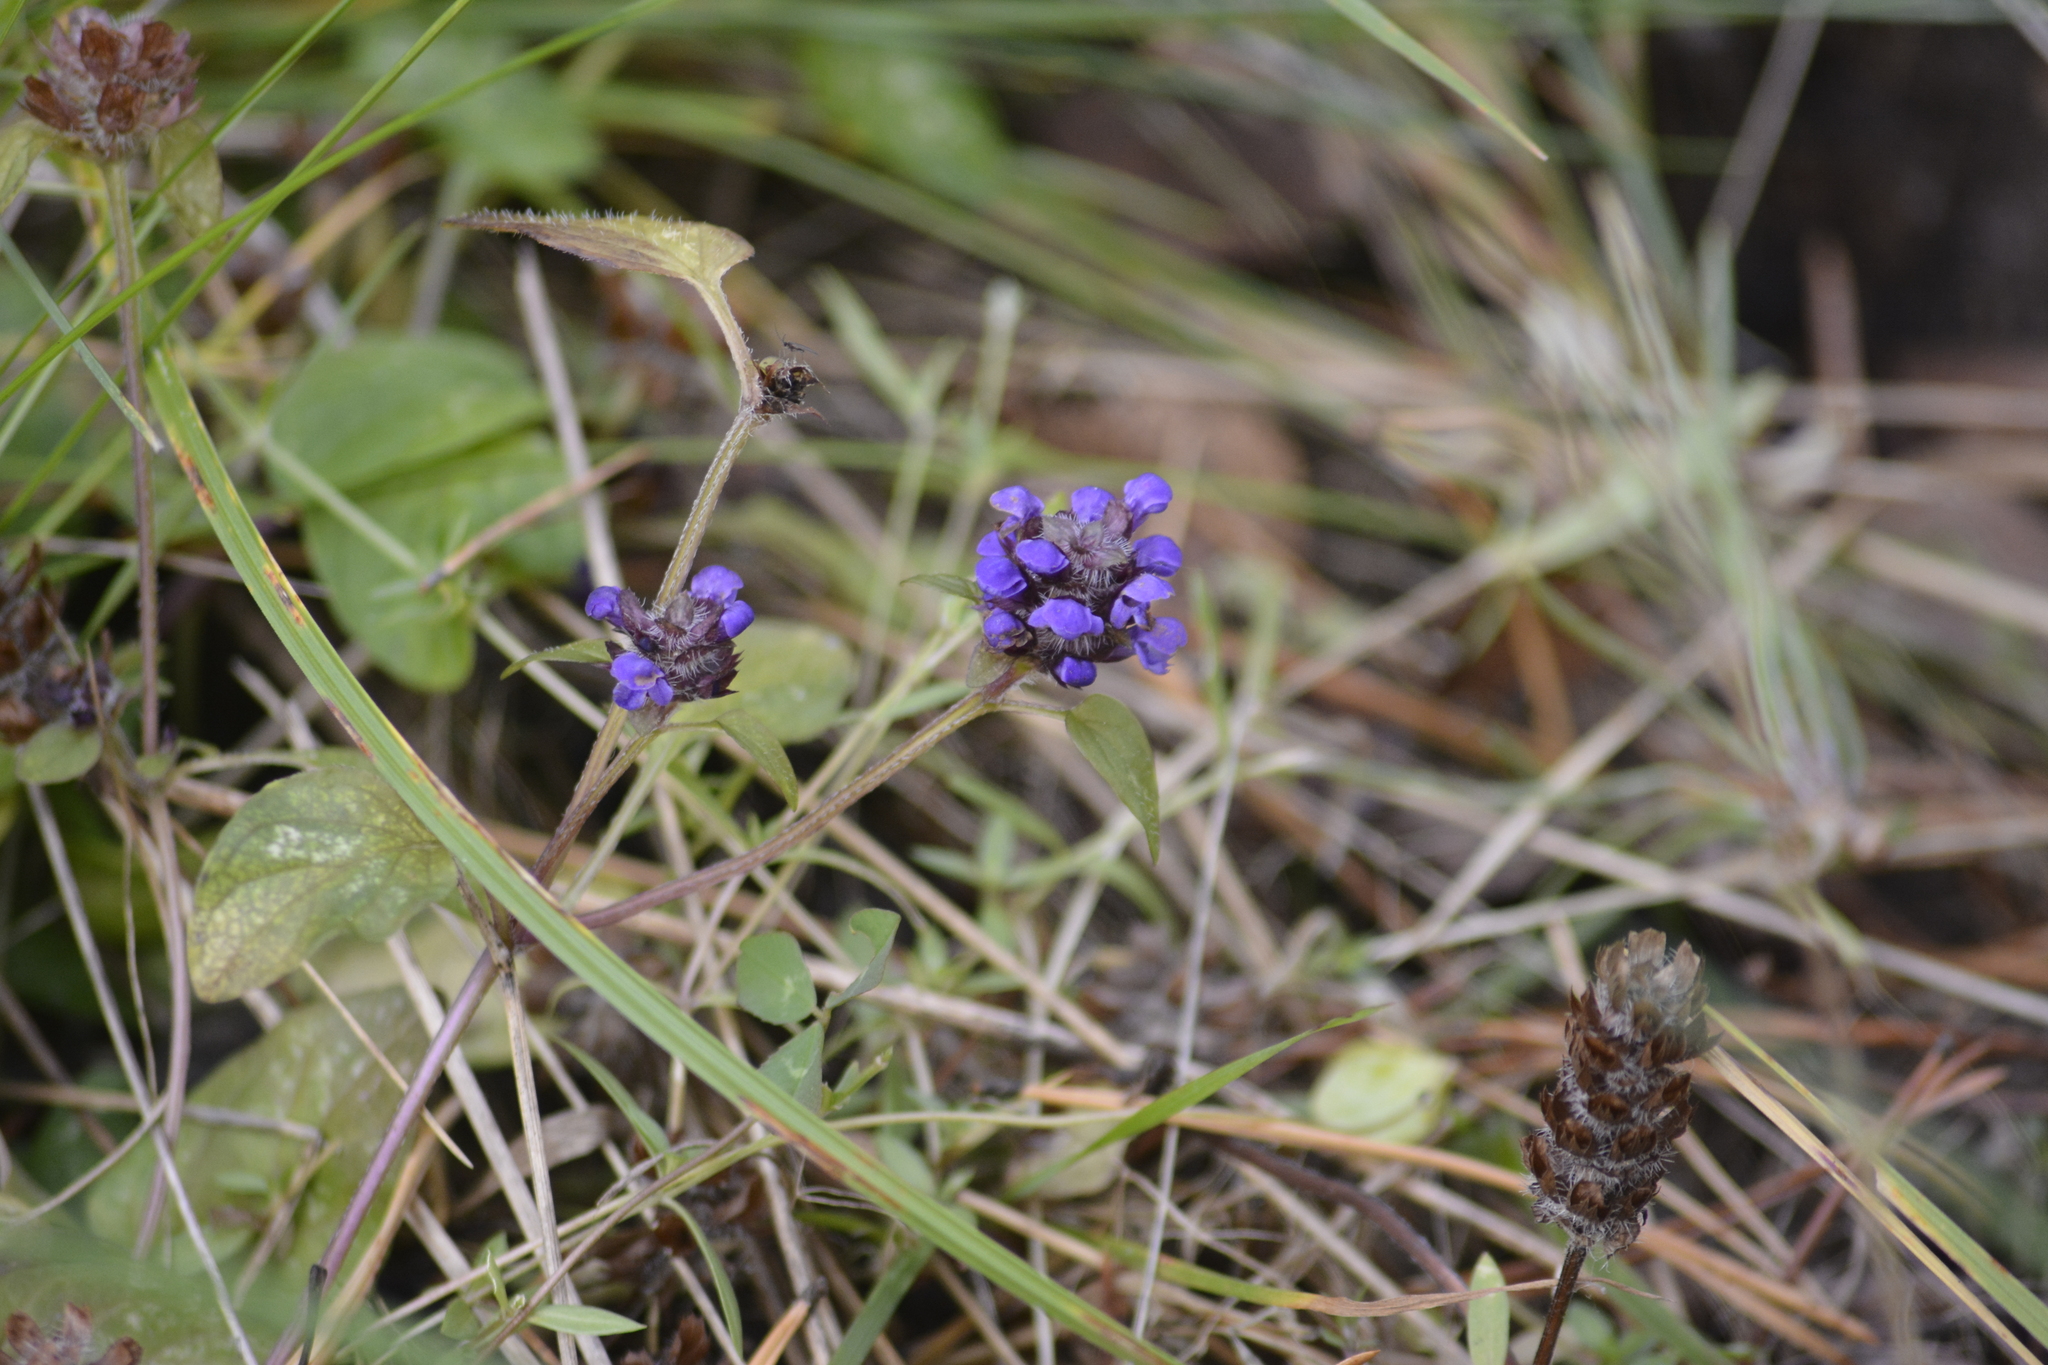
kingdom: Plantae
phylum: Tracheophyta
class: Magnoliopsida
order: Lamiales
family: Lamiaceae
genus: Prunella
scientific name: Prunella vulgaris
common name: Heal-all
